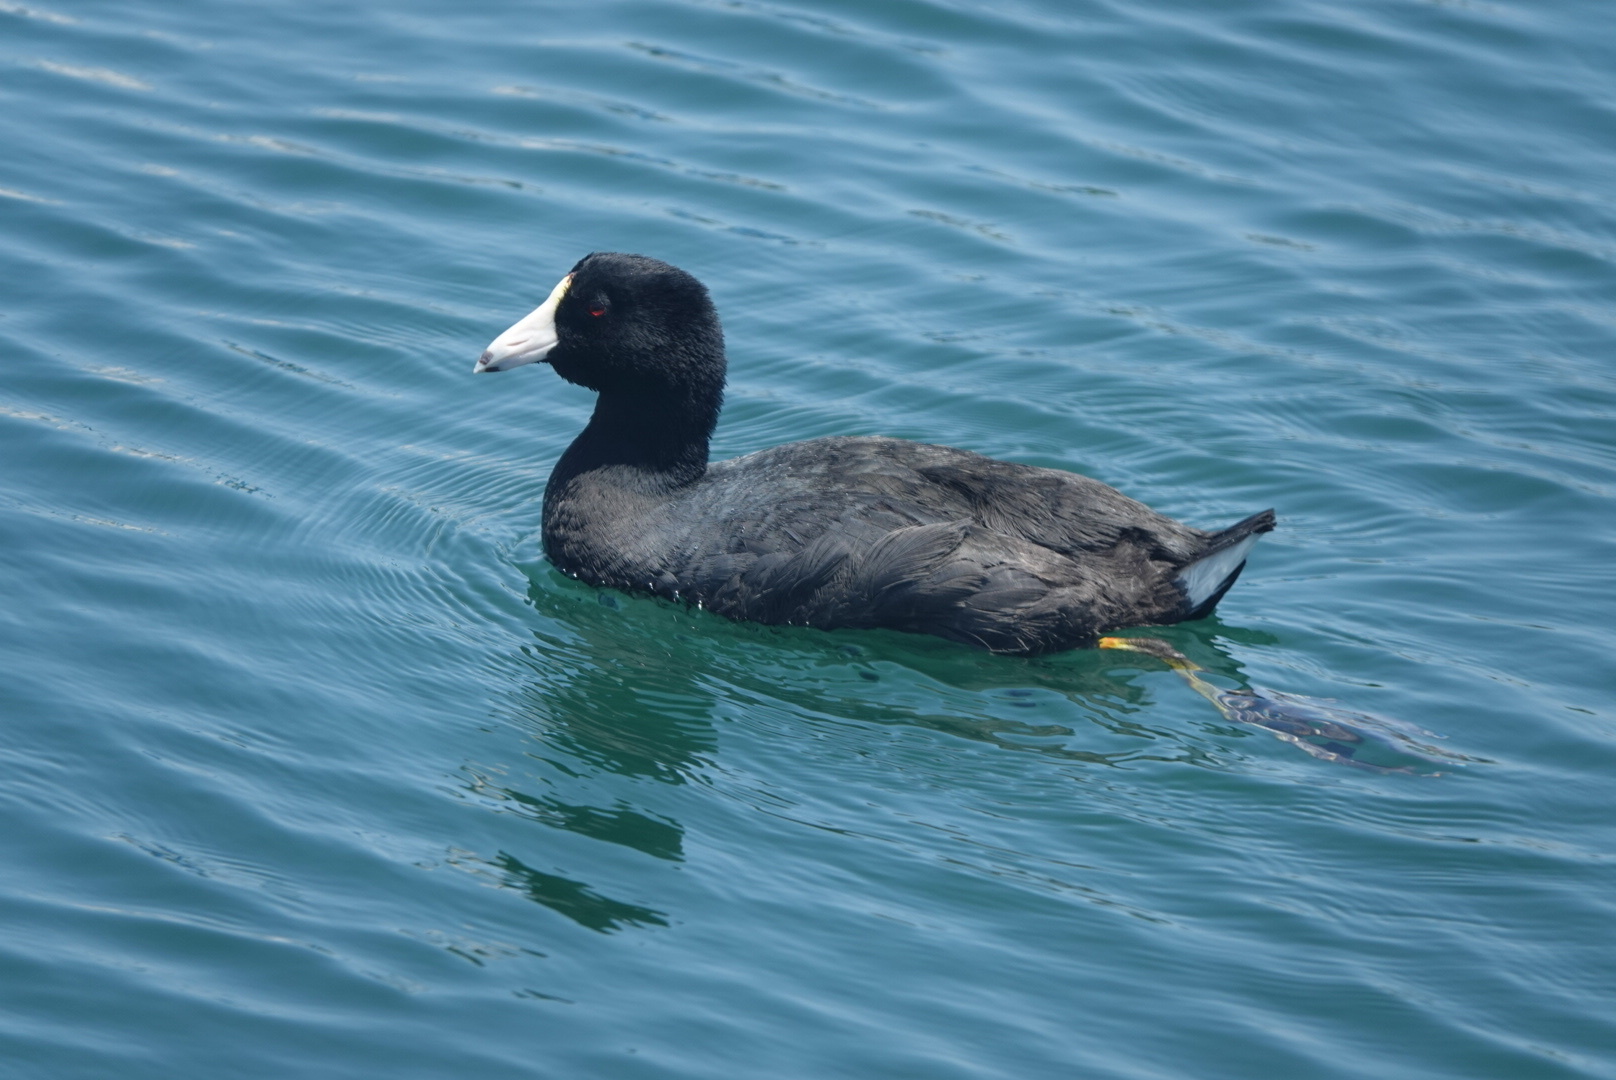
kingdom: Animalia
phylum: Chordata
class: Aves
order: Gruiformes
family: Rallidae
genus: Fulica
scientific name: Fulica americana
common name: American coot
